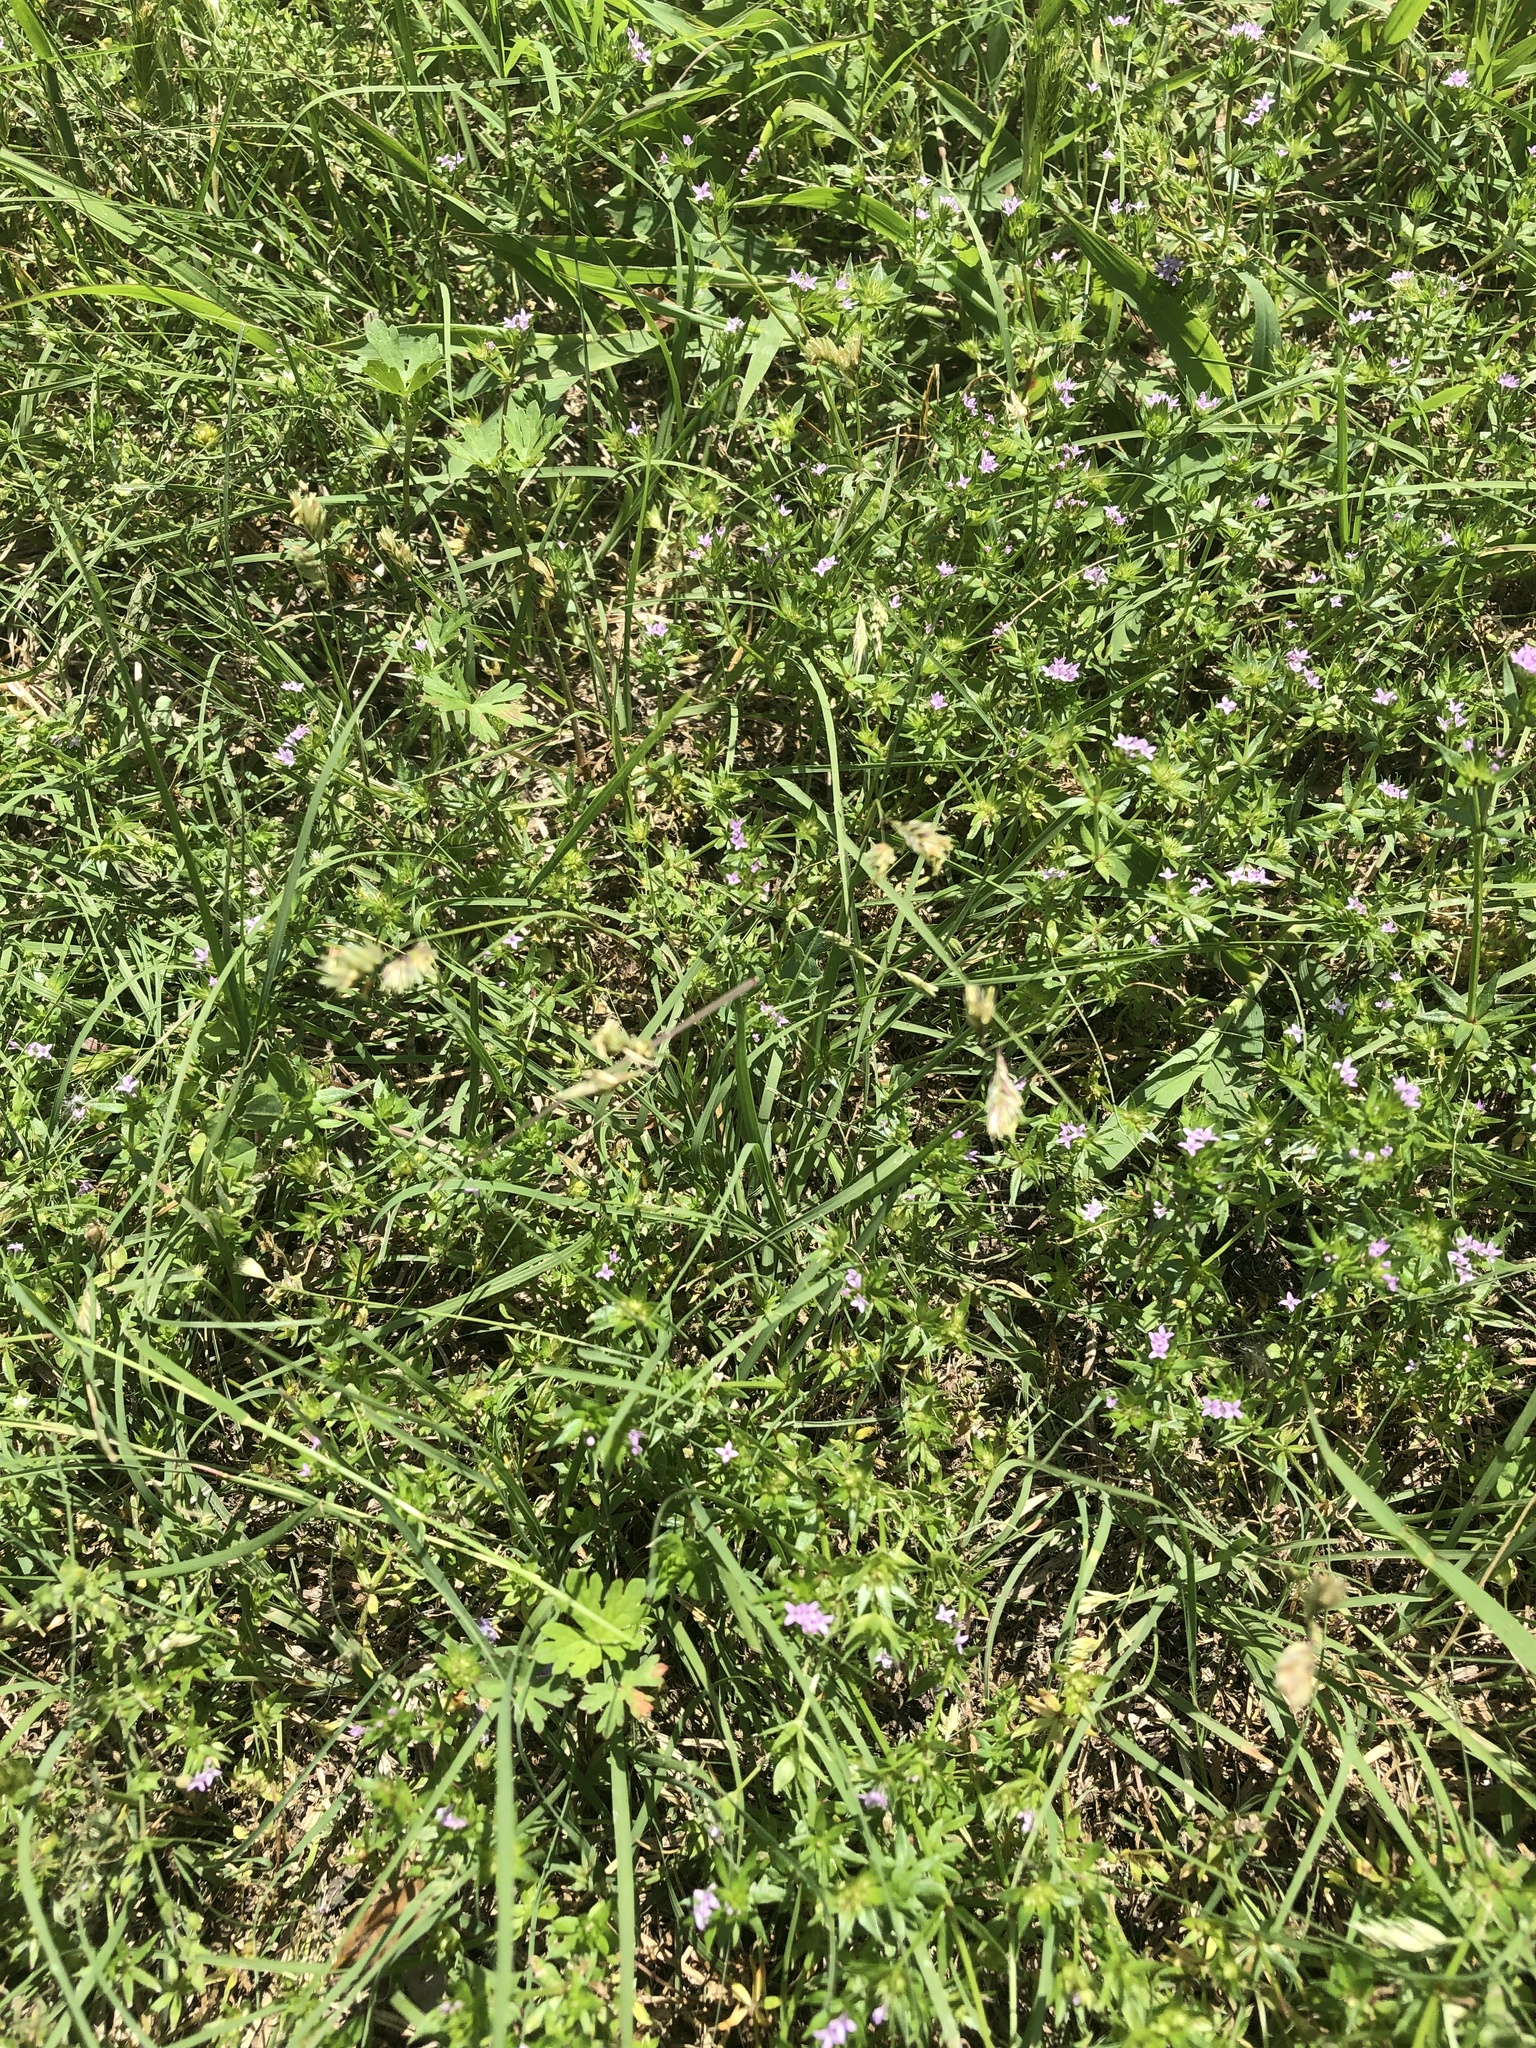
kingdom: Plantae
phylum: Tracheophyta
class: Liliopsida
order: Poales
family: Poaceae
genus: Bouteloua
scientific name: Bouteloua dactyloides
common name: Buffalo grass
